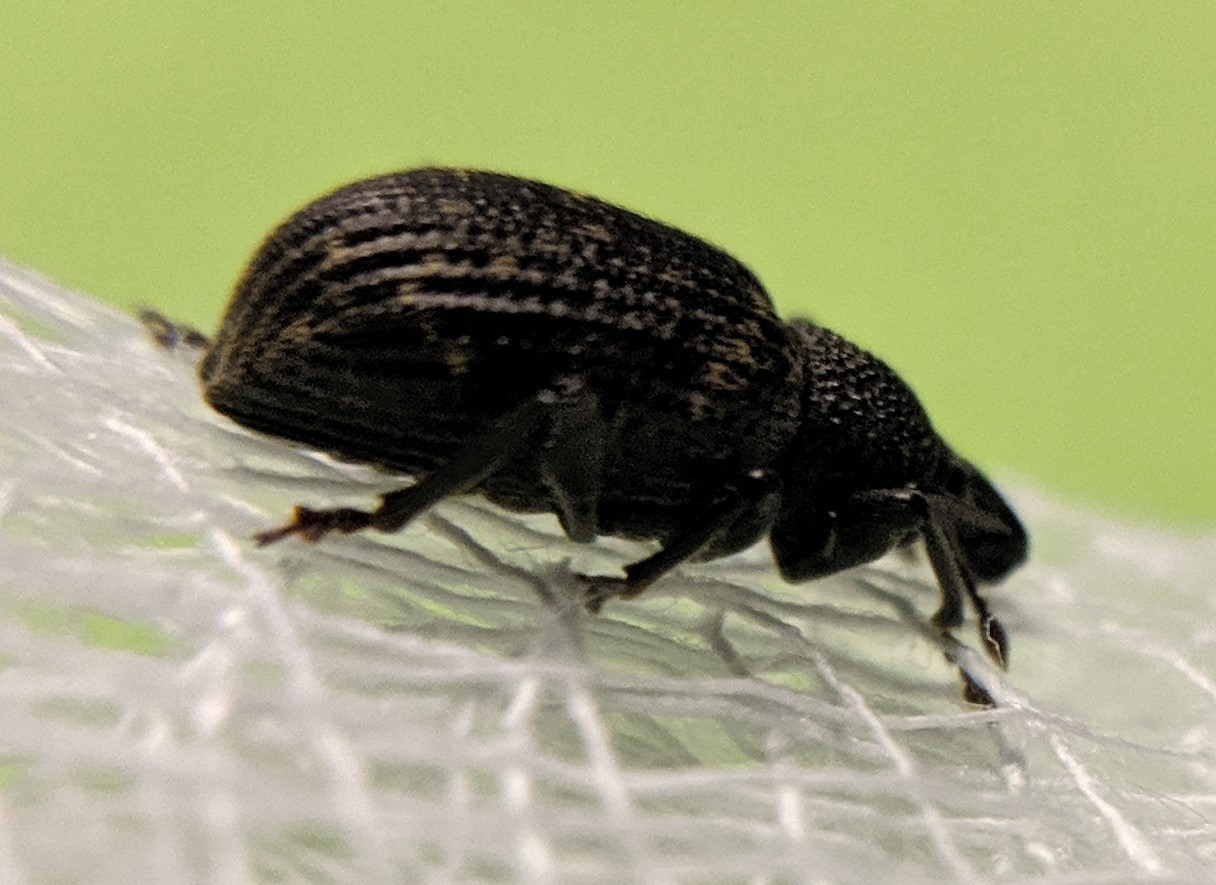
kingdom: Animalia
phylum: Arthropoda
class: Insecta
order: Coleoptera
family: Curculionidae
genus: Otiorhynchus
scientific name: Otiorhynchus sulcatus
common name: Black vine weevil
